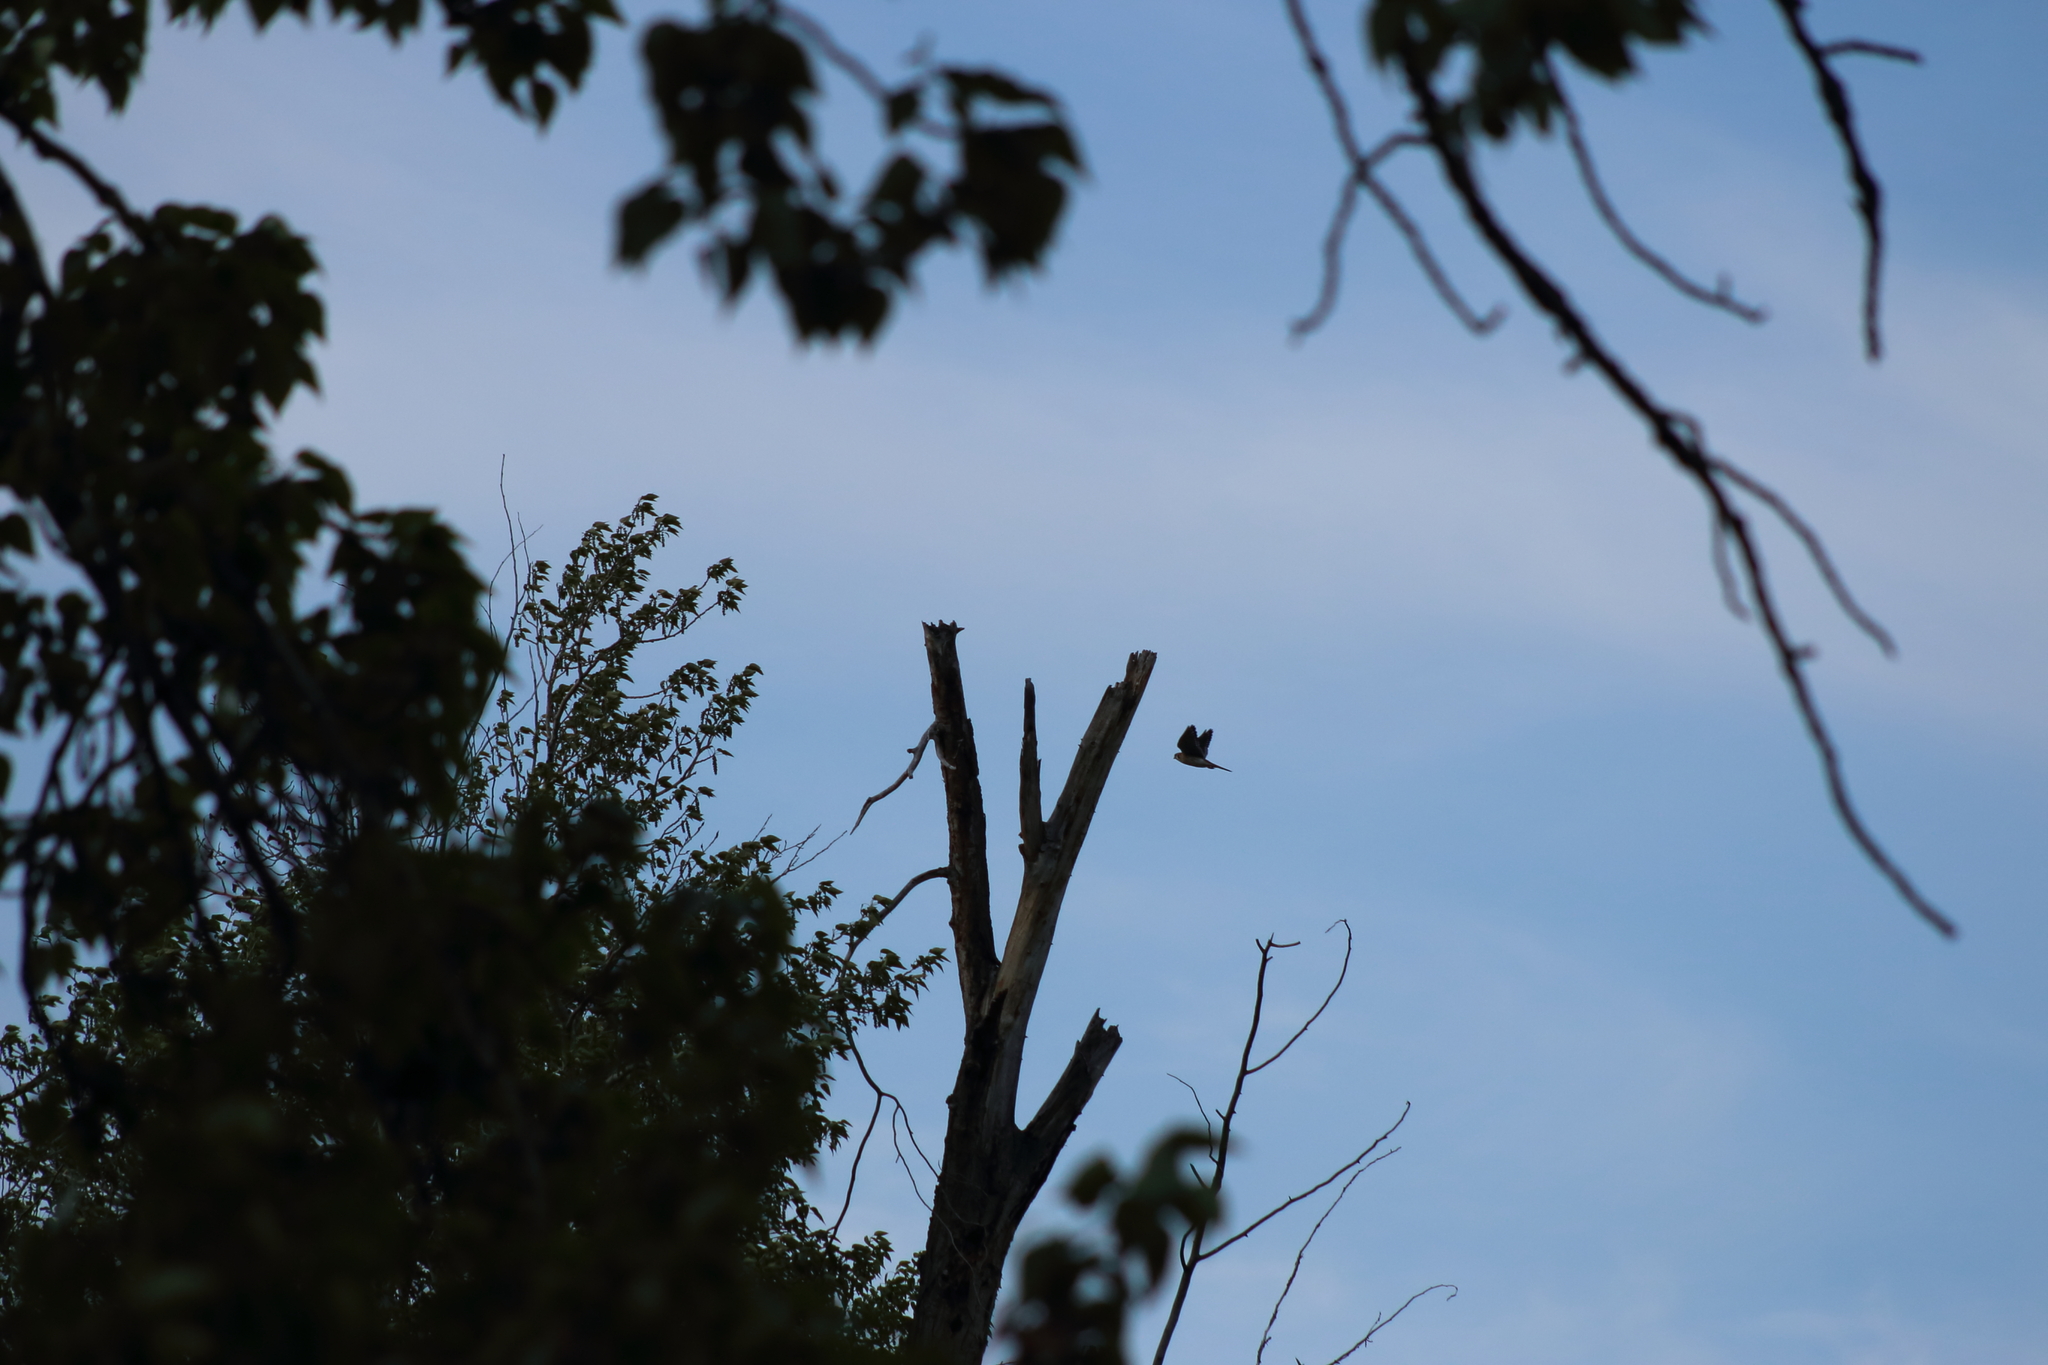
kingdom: Animalia
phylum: Chordata
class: Aves
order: Falconiformes
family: Falconidae
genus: Falco
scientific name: Falco sparverius
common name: American kestrel
